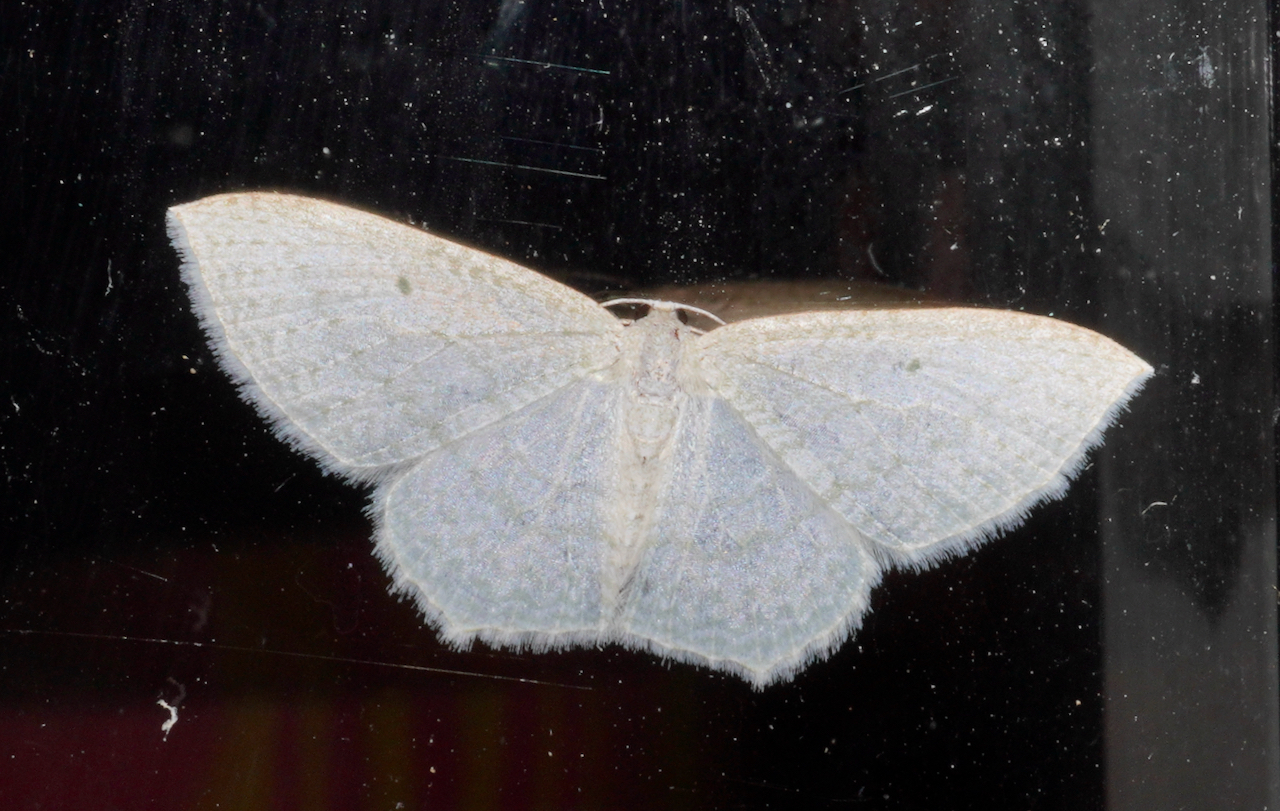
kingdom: Animalia
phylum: Arthropoda
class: Insecta
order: Lepidoptera
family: Geometridae
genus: Poecilasthena
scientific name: Poecilasthena pulchraria
